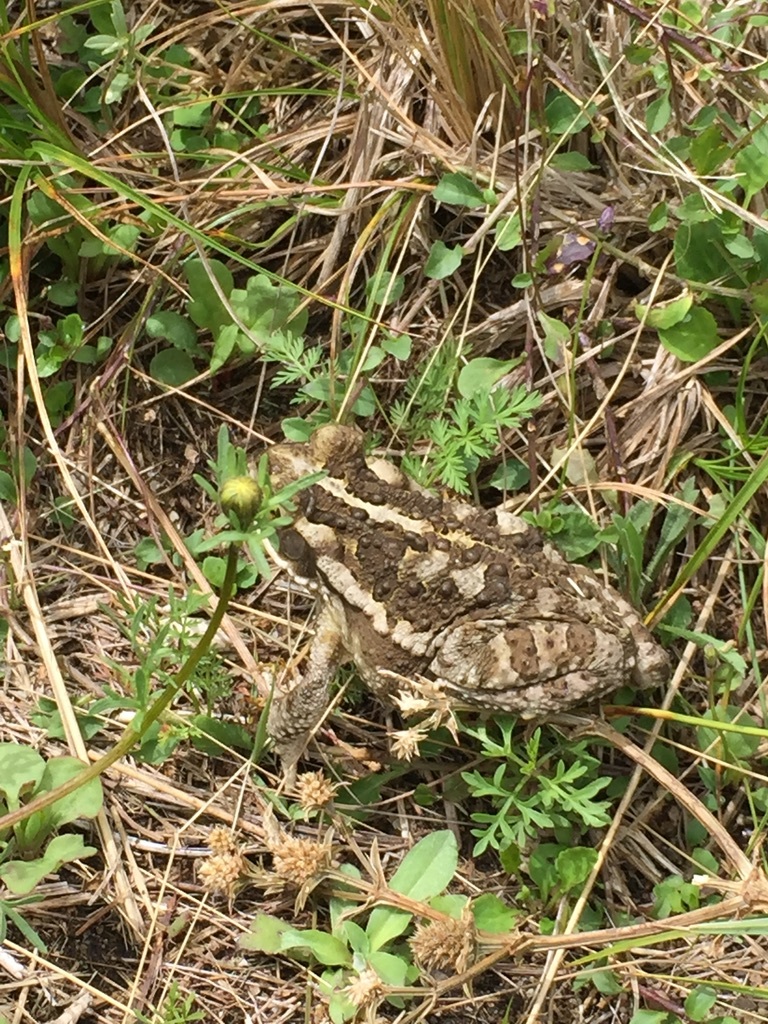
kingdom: Animalia
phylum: Chordata
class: Amphibia
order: Anura
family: Bufonidae
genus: Rhinella
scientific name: Rhinella arenarum
